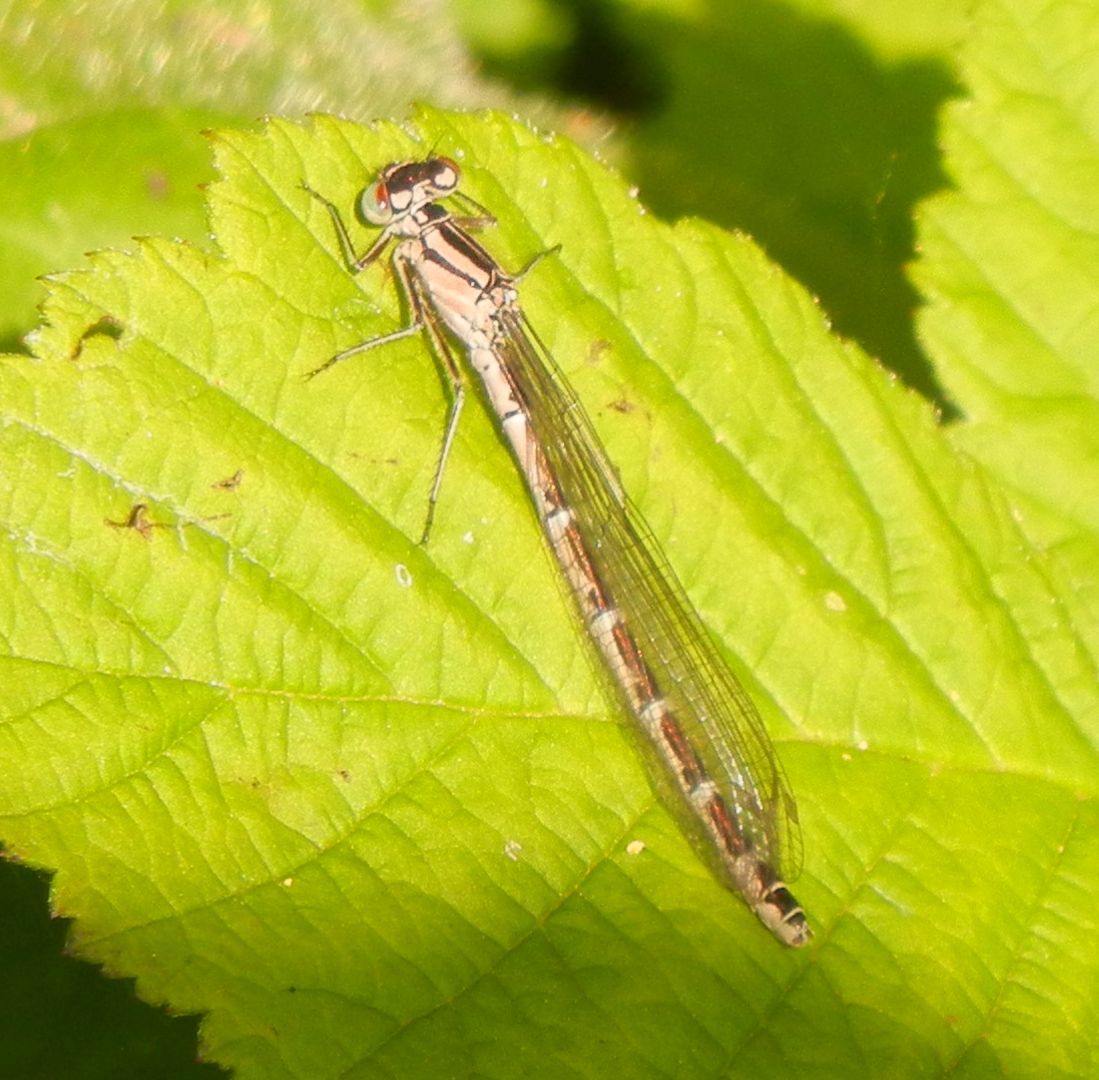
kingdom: Animalia
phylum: Arthropoda
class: Insecta
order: Odonata
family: Coenagrionidae
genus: Enallagma
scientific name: Enallagma cyathigerum
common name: Common blue damselfly
